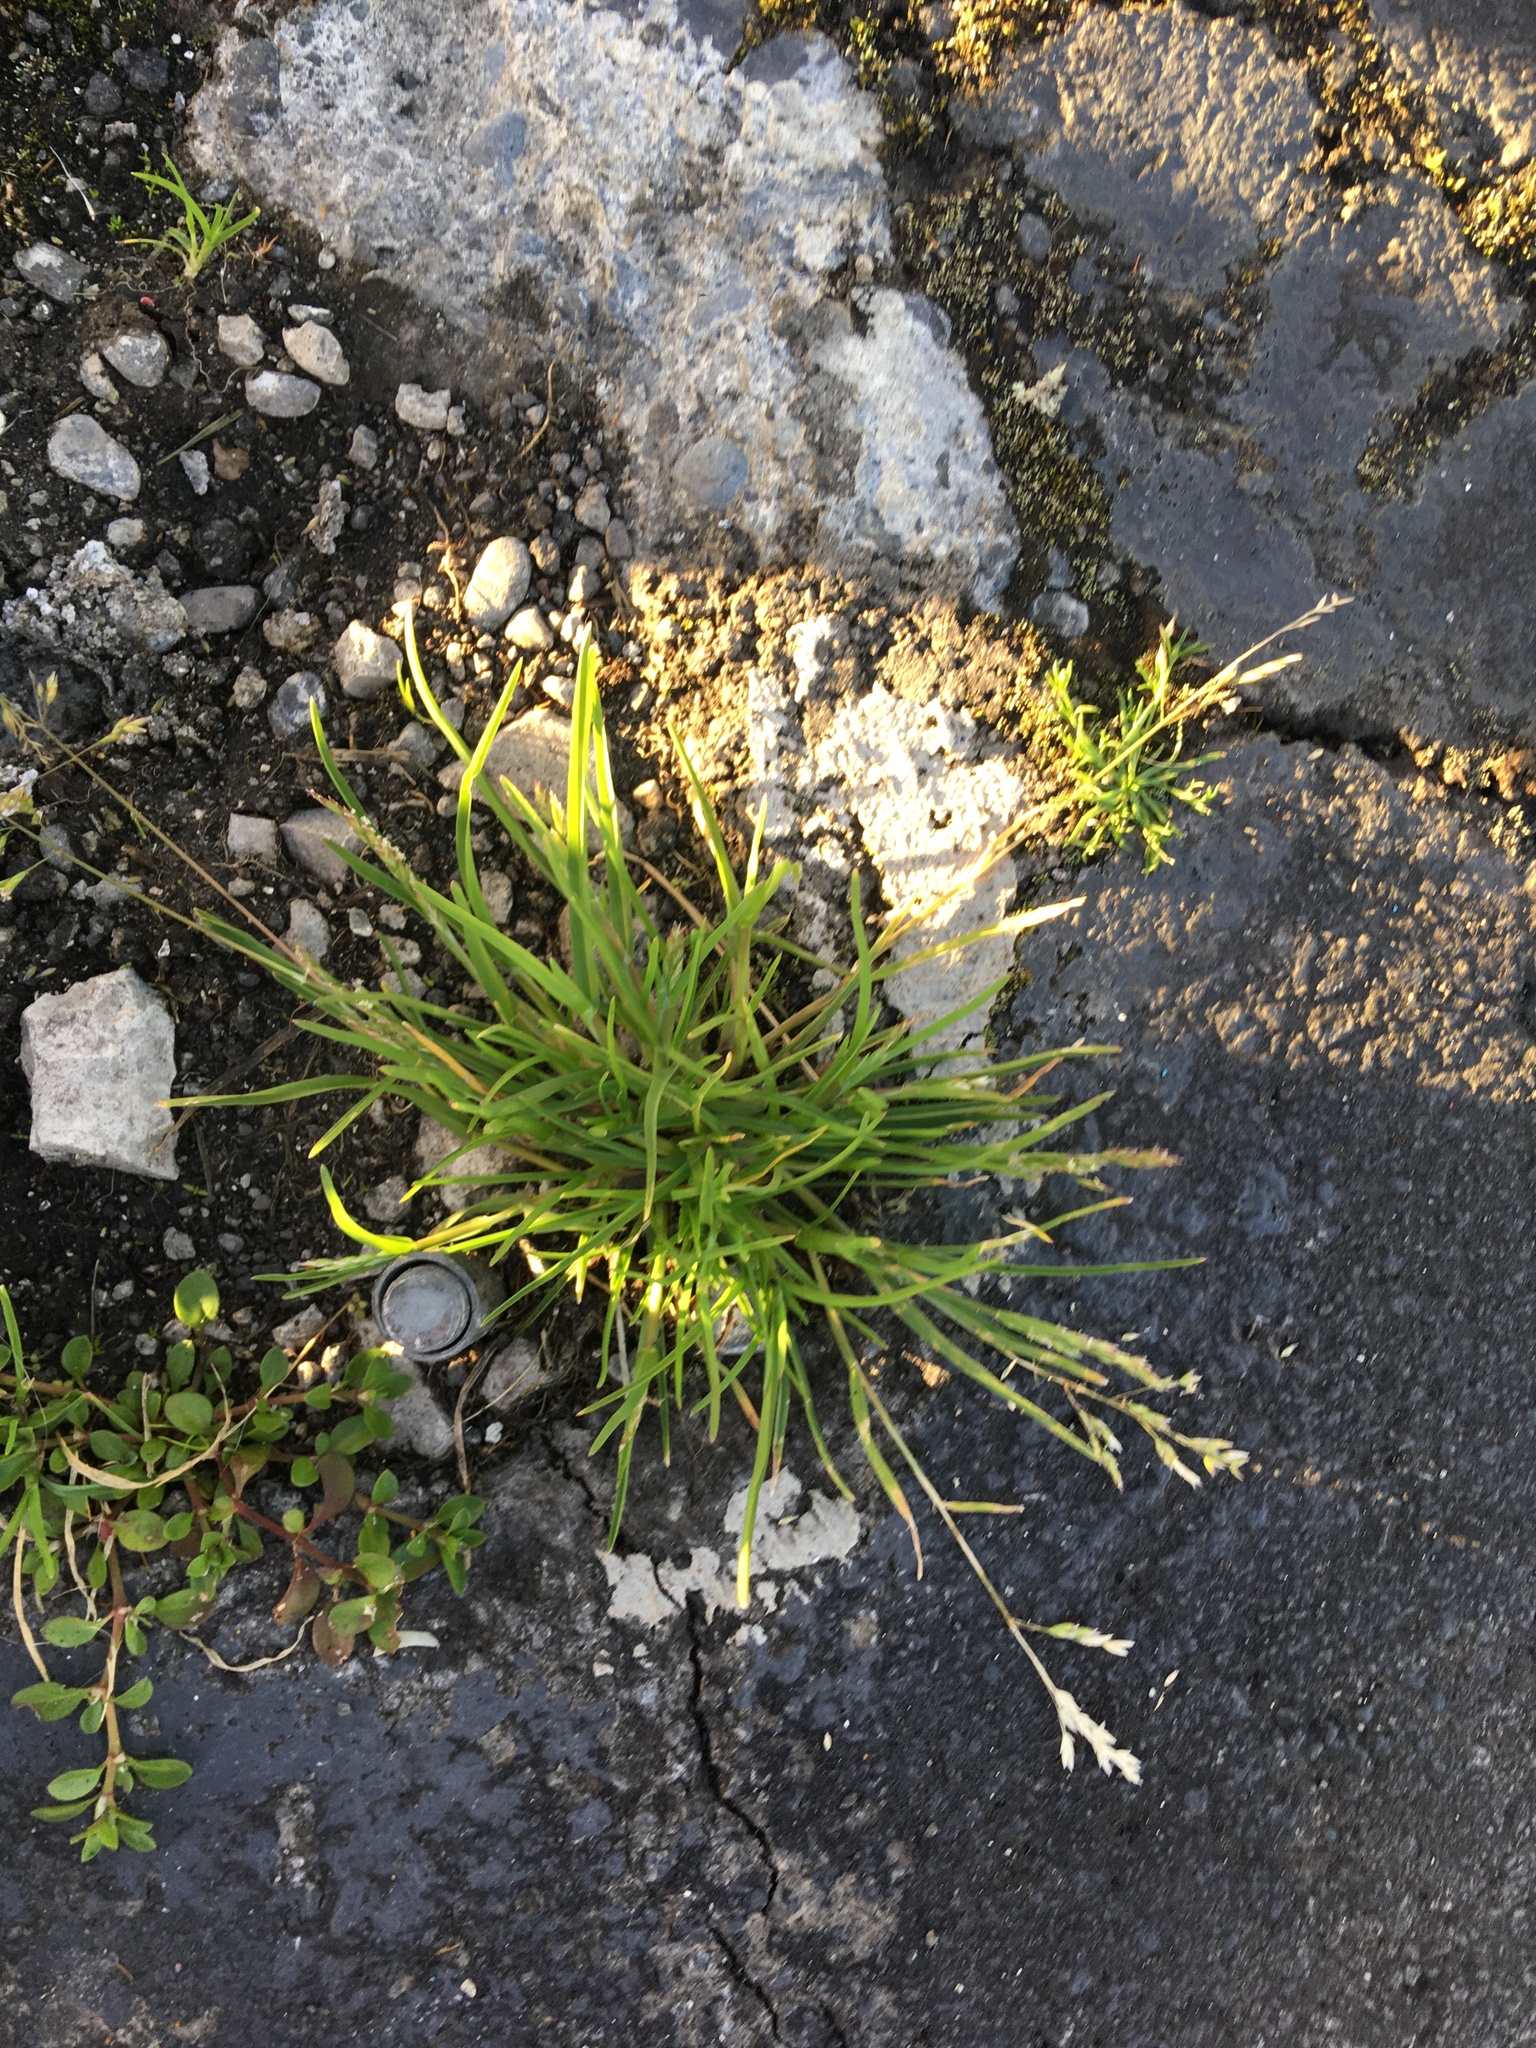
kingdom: Plantae
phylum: Tracheophyta
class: Liliopsida
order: Poales
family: Poaceae
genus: Poa
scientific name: Poa annua
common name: Annual bluegrass
